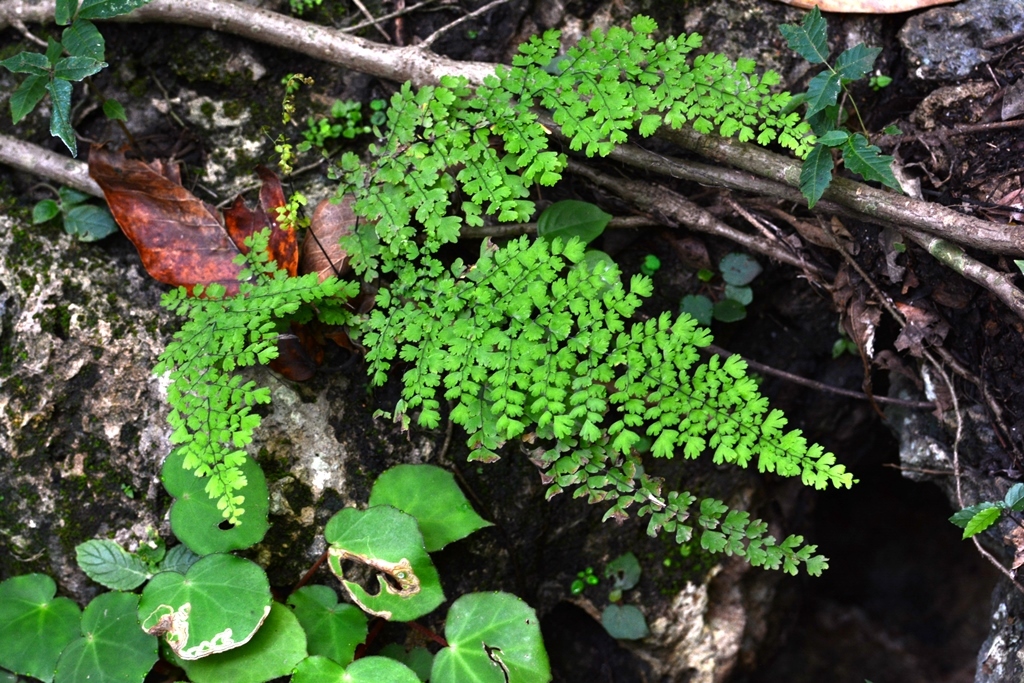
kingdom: Plantae
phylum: Tracheophyta
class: Polypodiopsida
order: Polypodiales
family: Pteridaceae
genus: Adiantum
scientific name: Adiantum concinnum
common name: Brittle maidenhair fern
